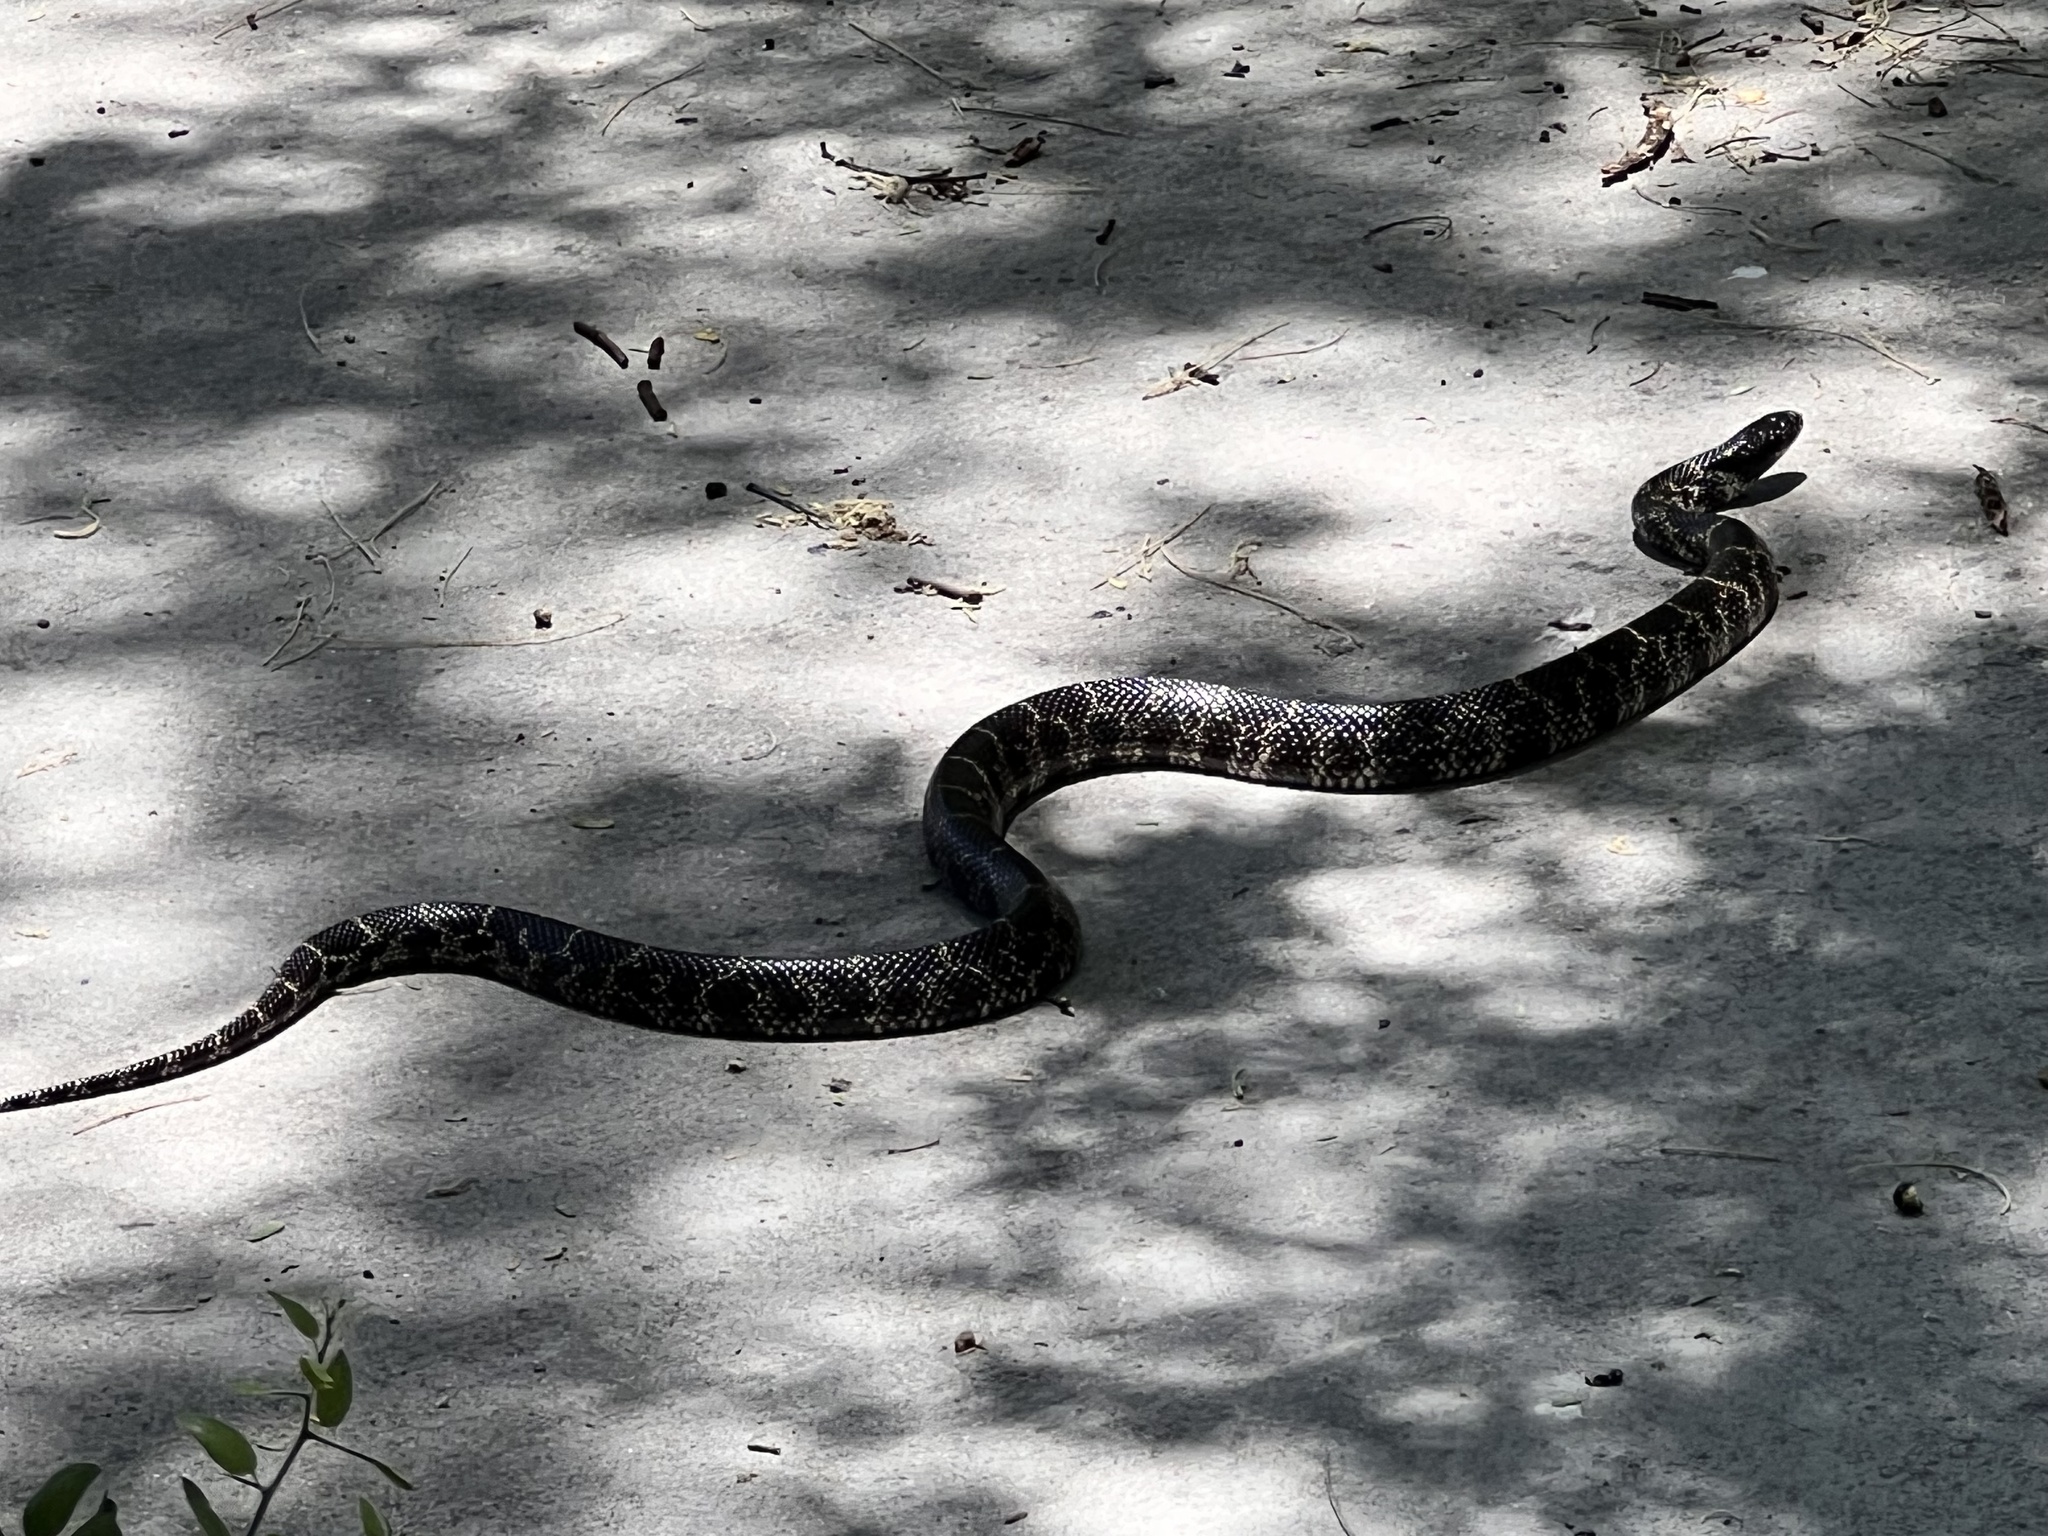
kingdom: Animalia
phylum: Chordata
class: Squamata
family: Colubridae
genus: Lampropeltis
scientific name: Lampropeltis splendida
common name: Desert kingsnake
